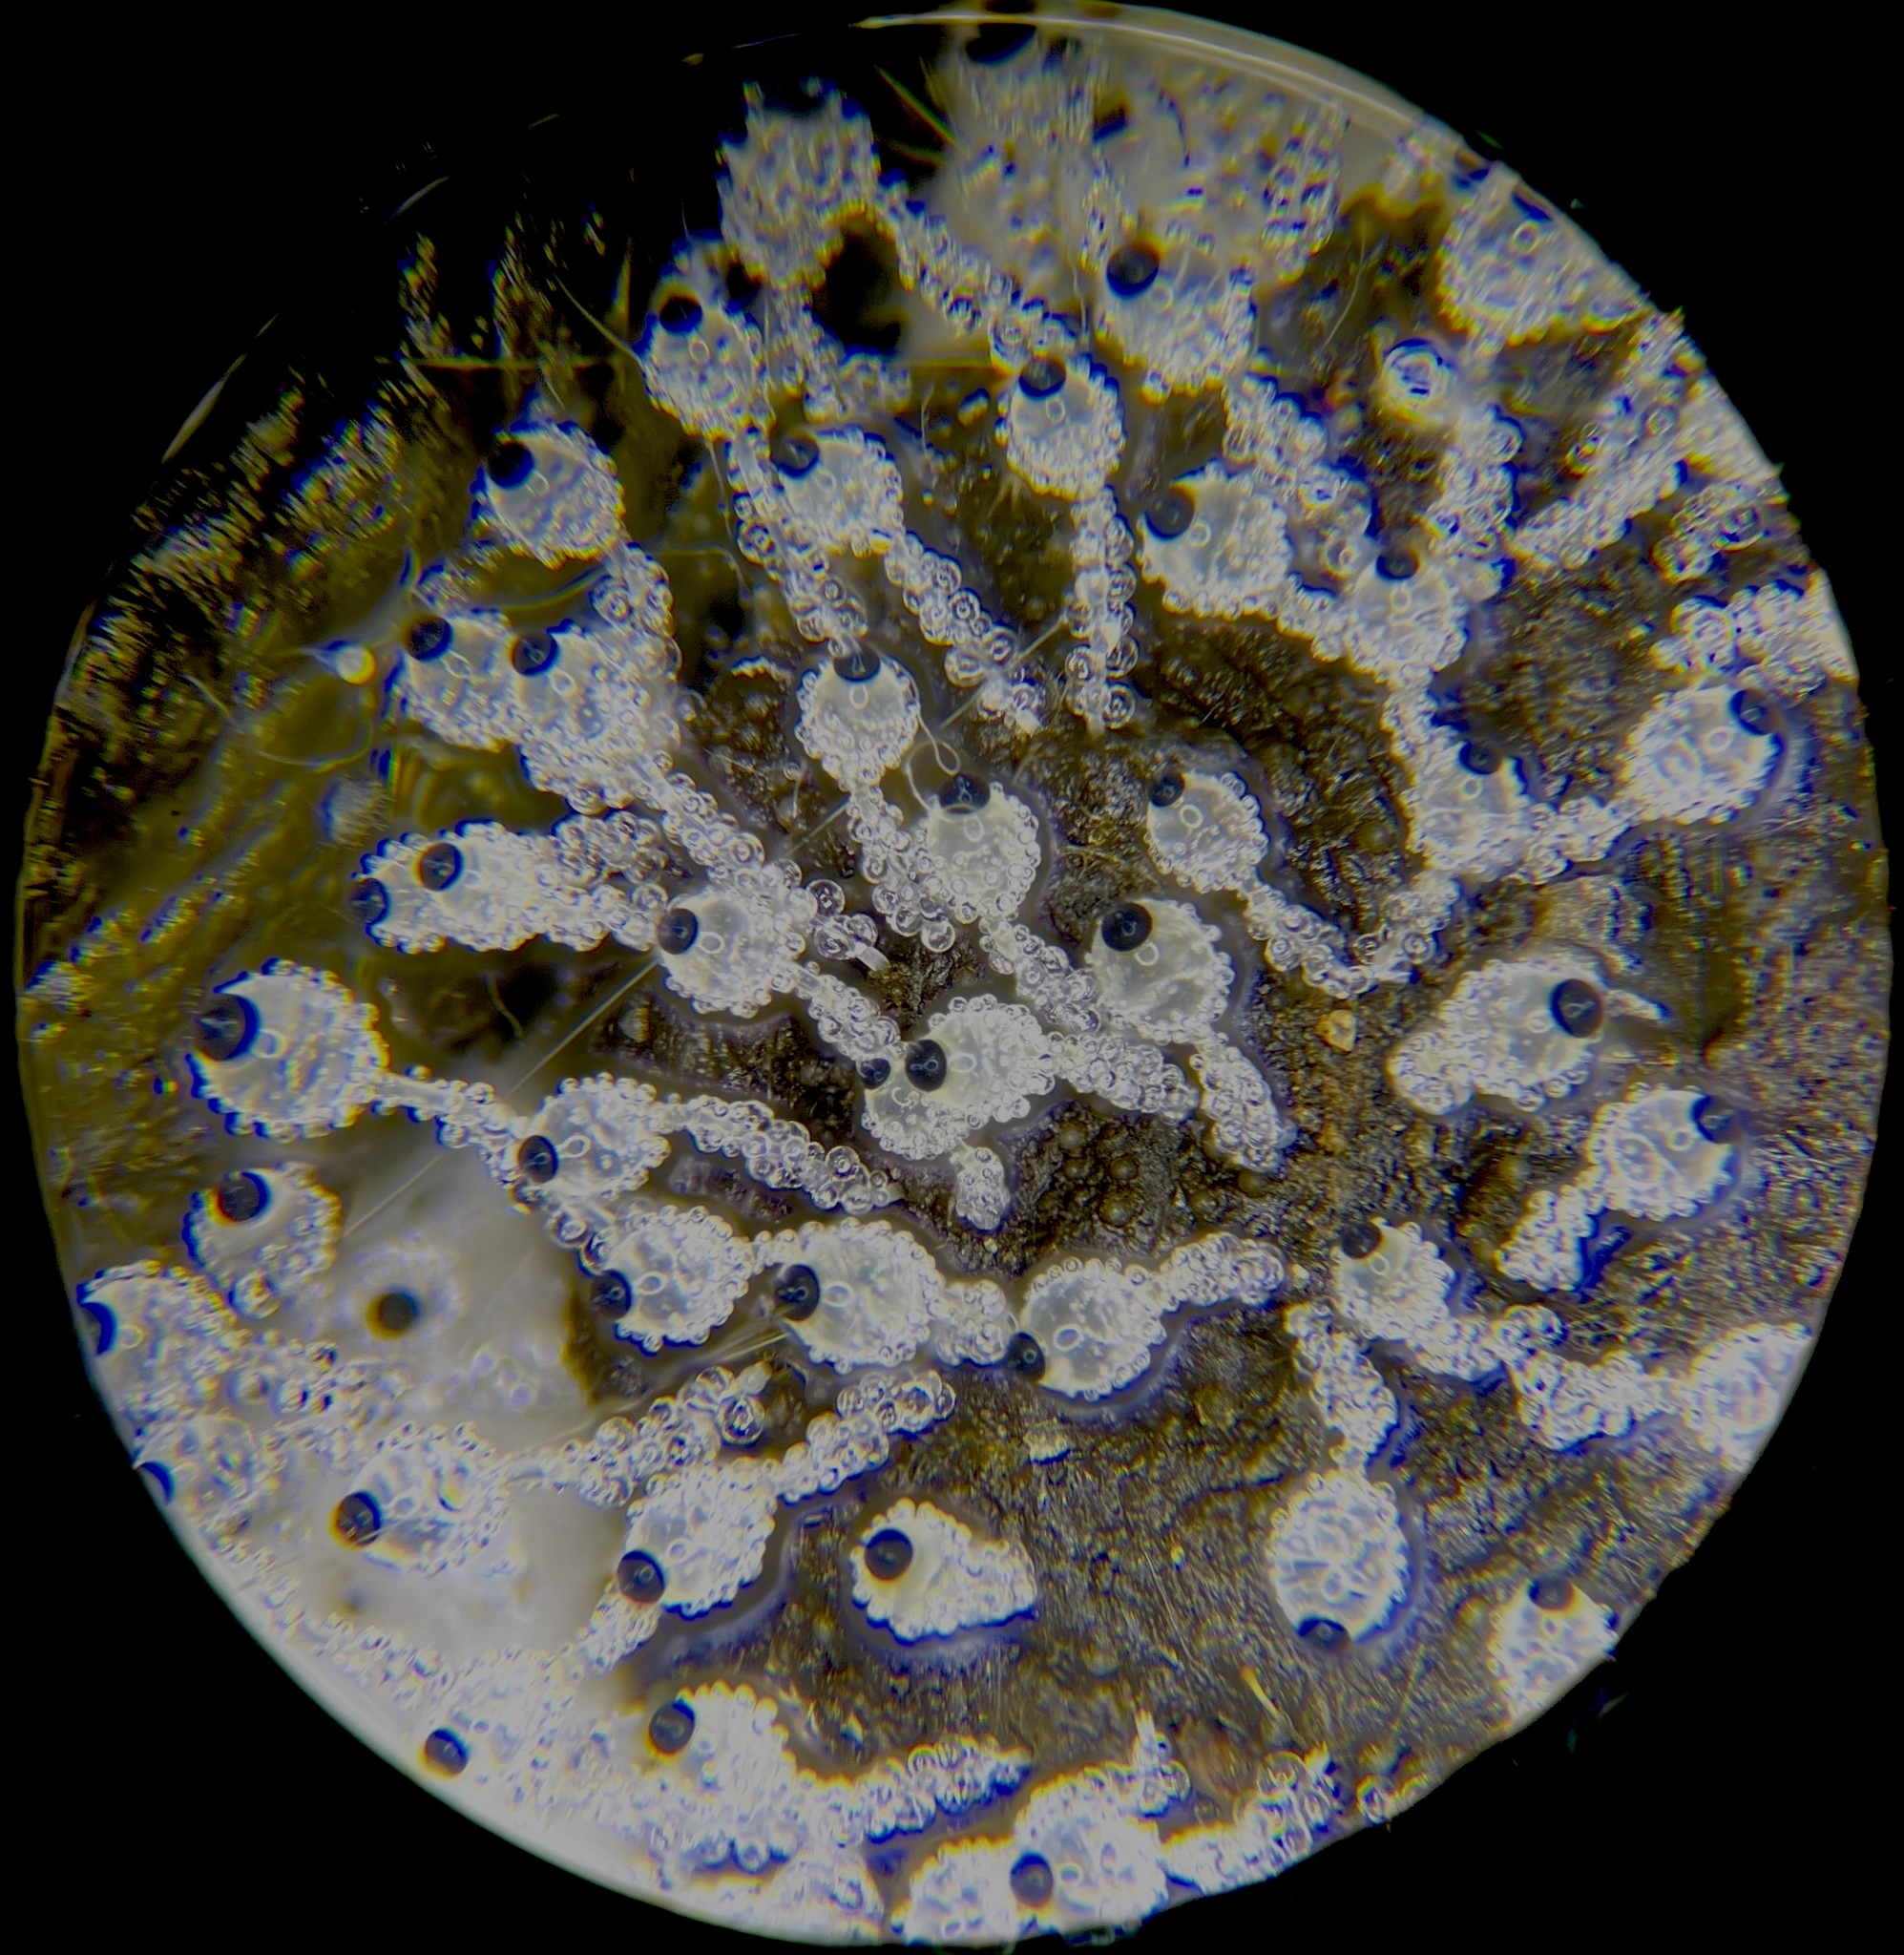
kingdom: Fungi
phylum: Mucoromycota
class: Mucoromycetes
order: Mucorales
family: Pilobolaceae
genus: Pilobolus
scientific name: Pilobolus umbonatus
